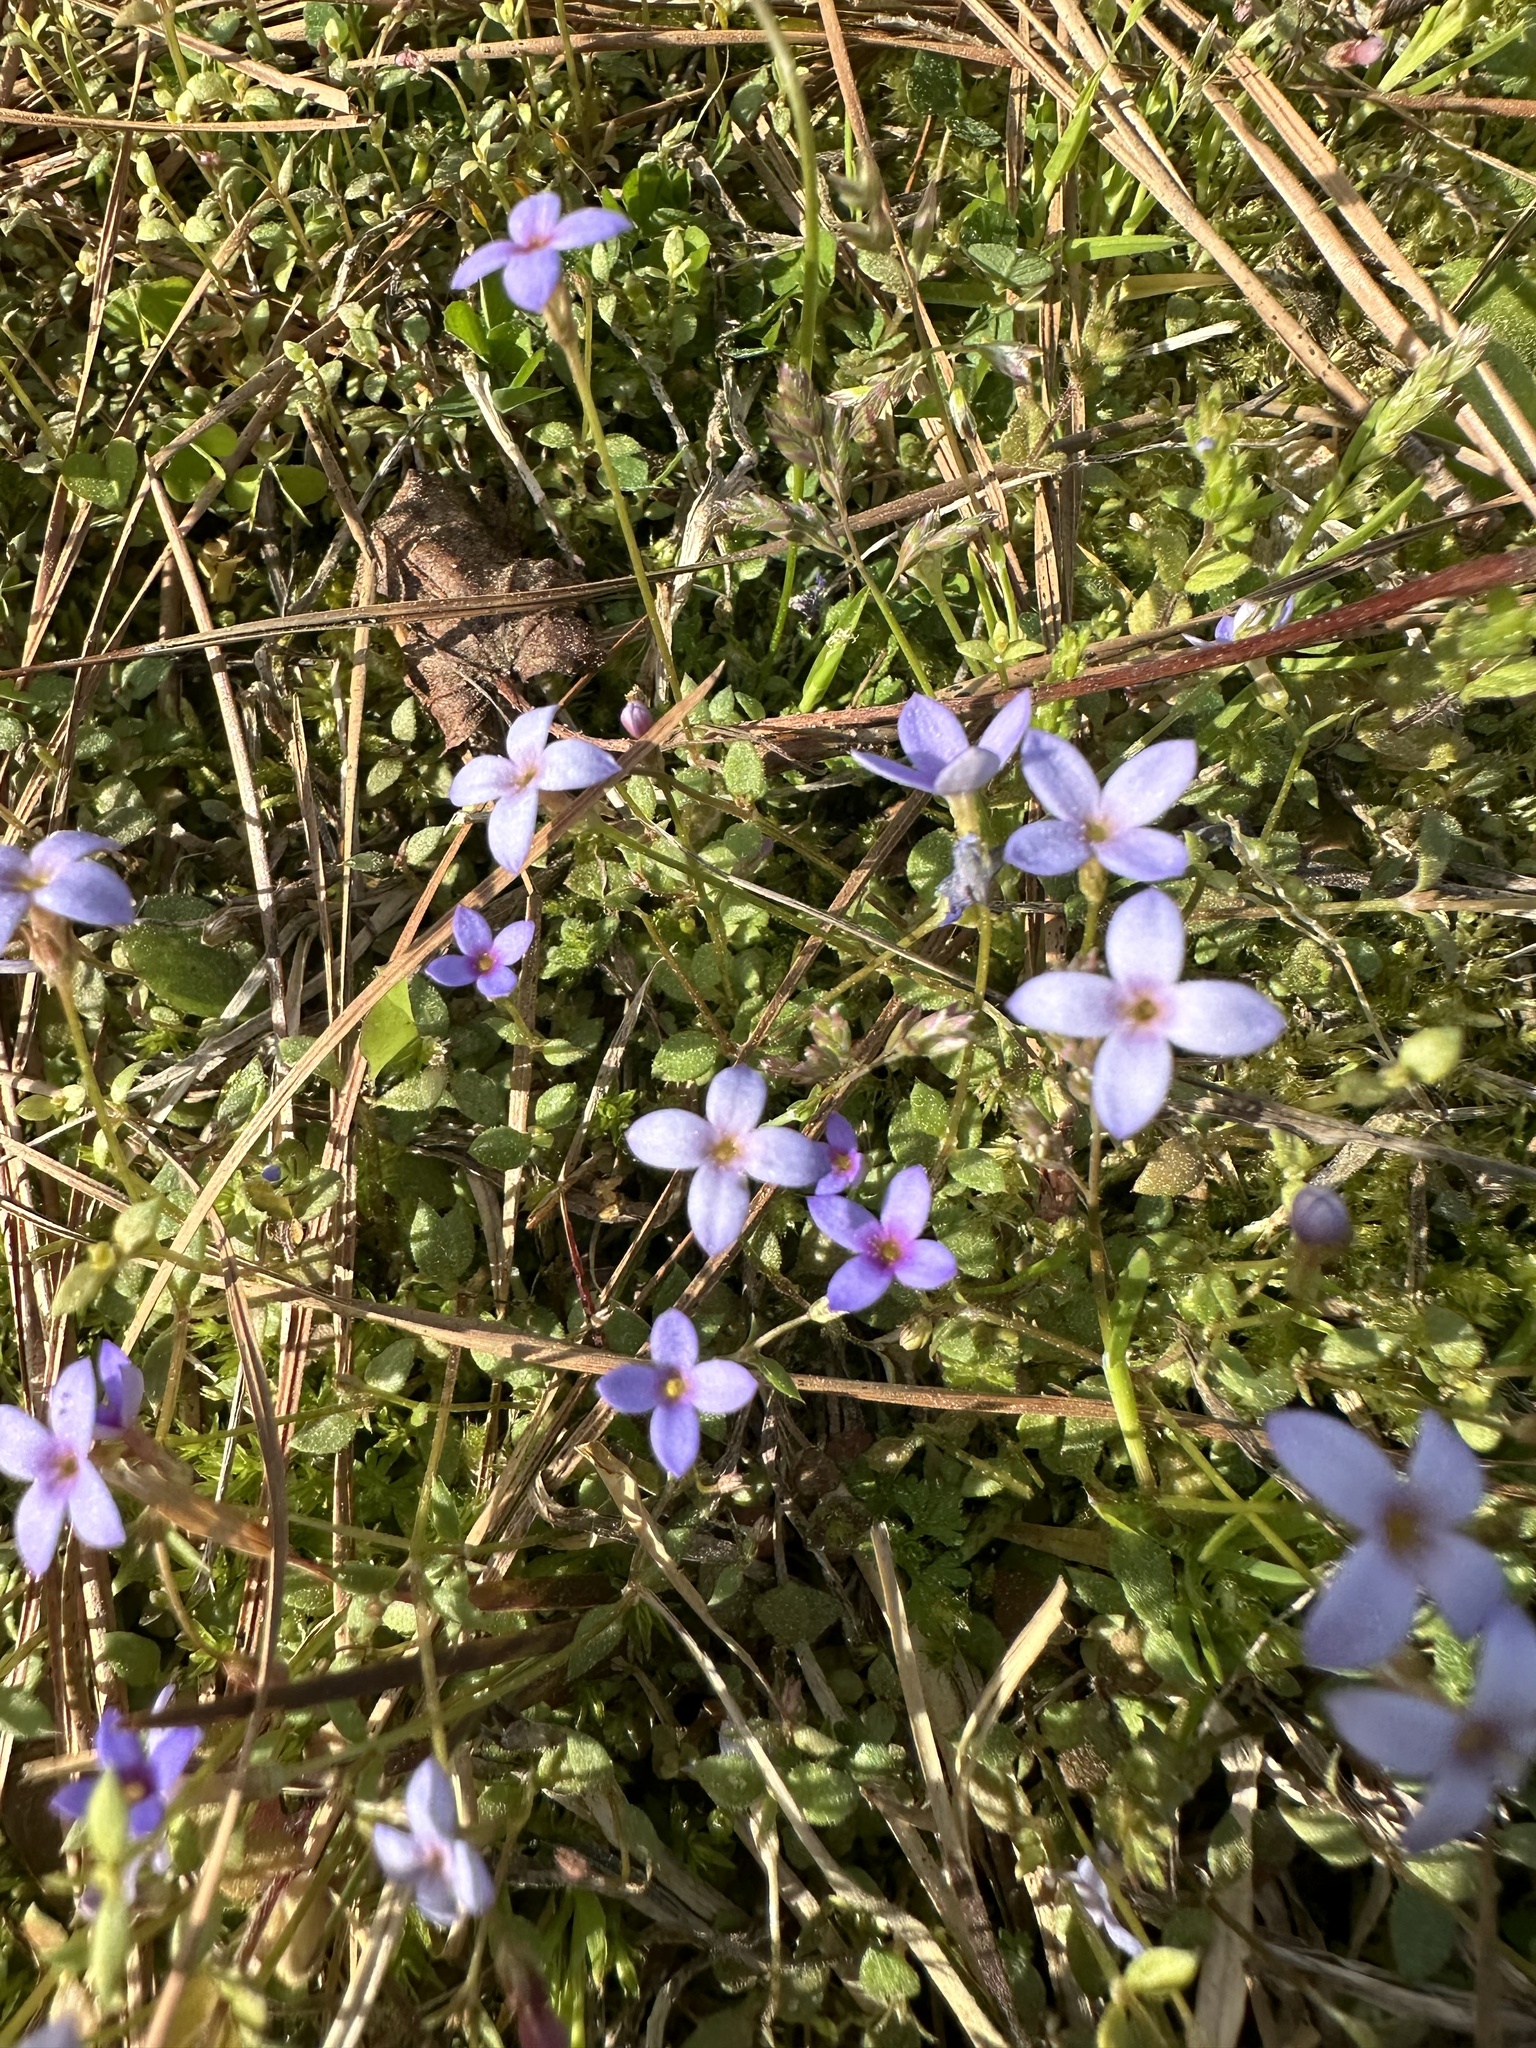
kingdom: Plantae
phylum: Tracheophyta
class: Magnoliopsida
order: Gentianales
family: Rubiaceae
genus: Houstonia
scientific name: Houstonia pusilla
